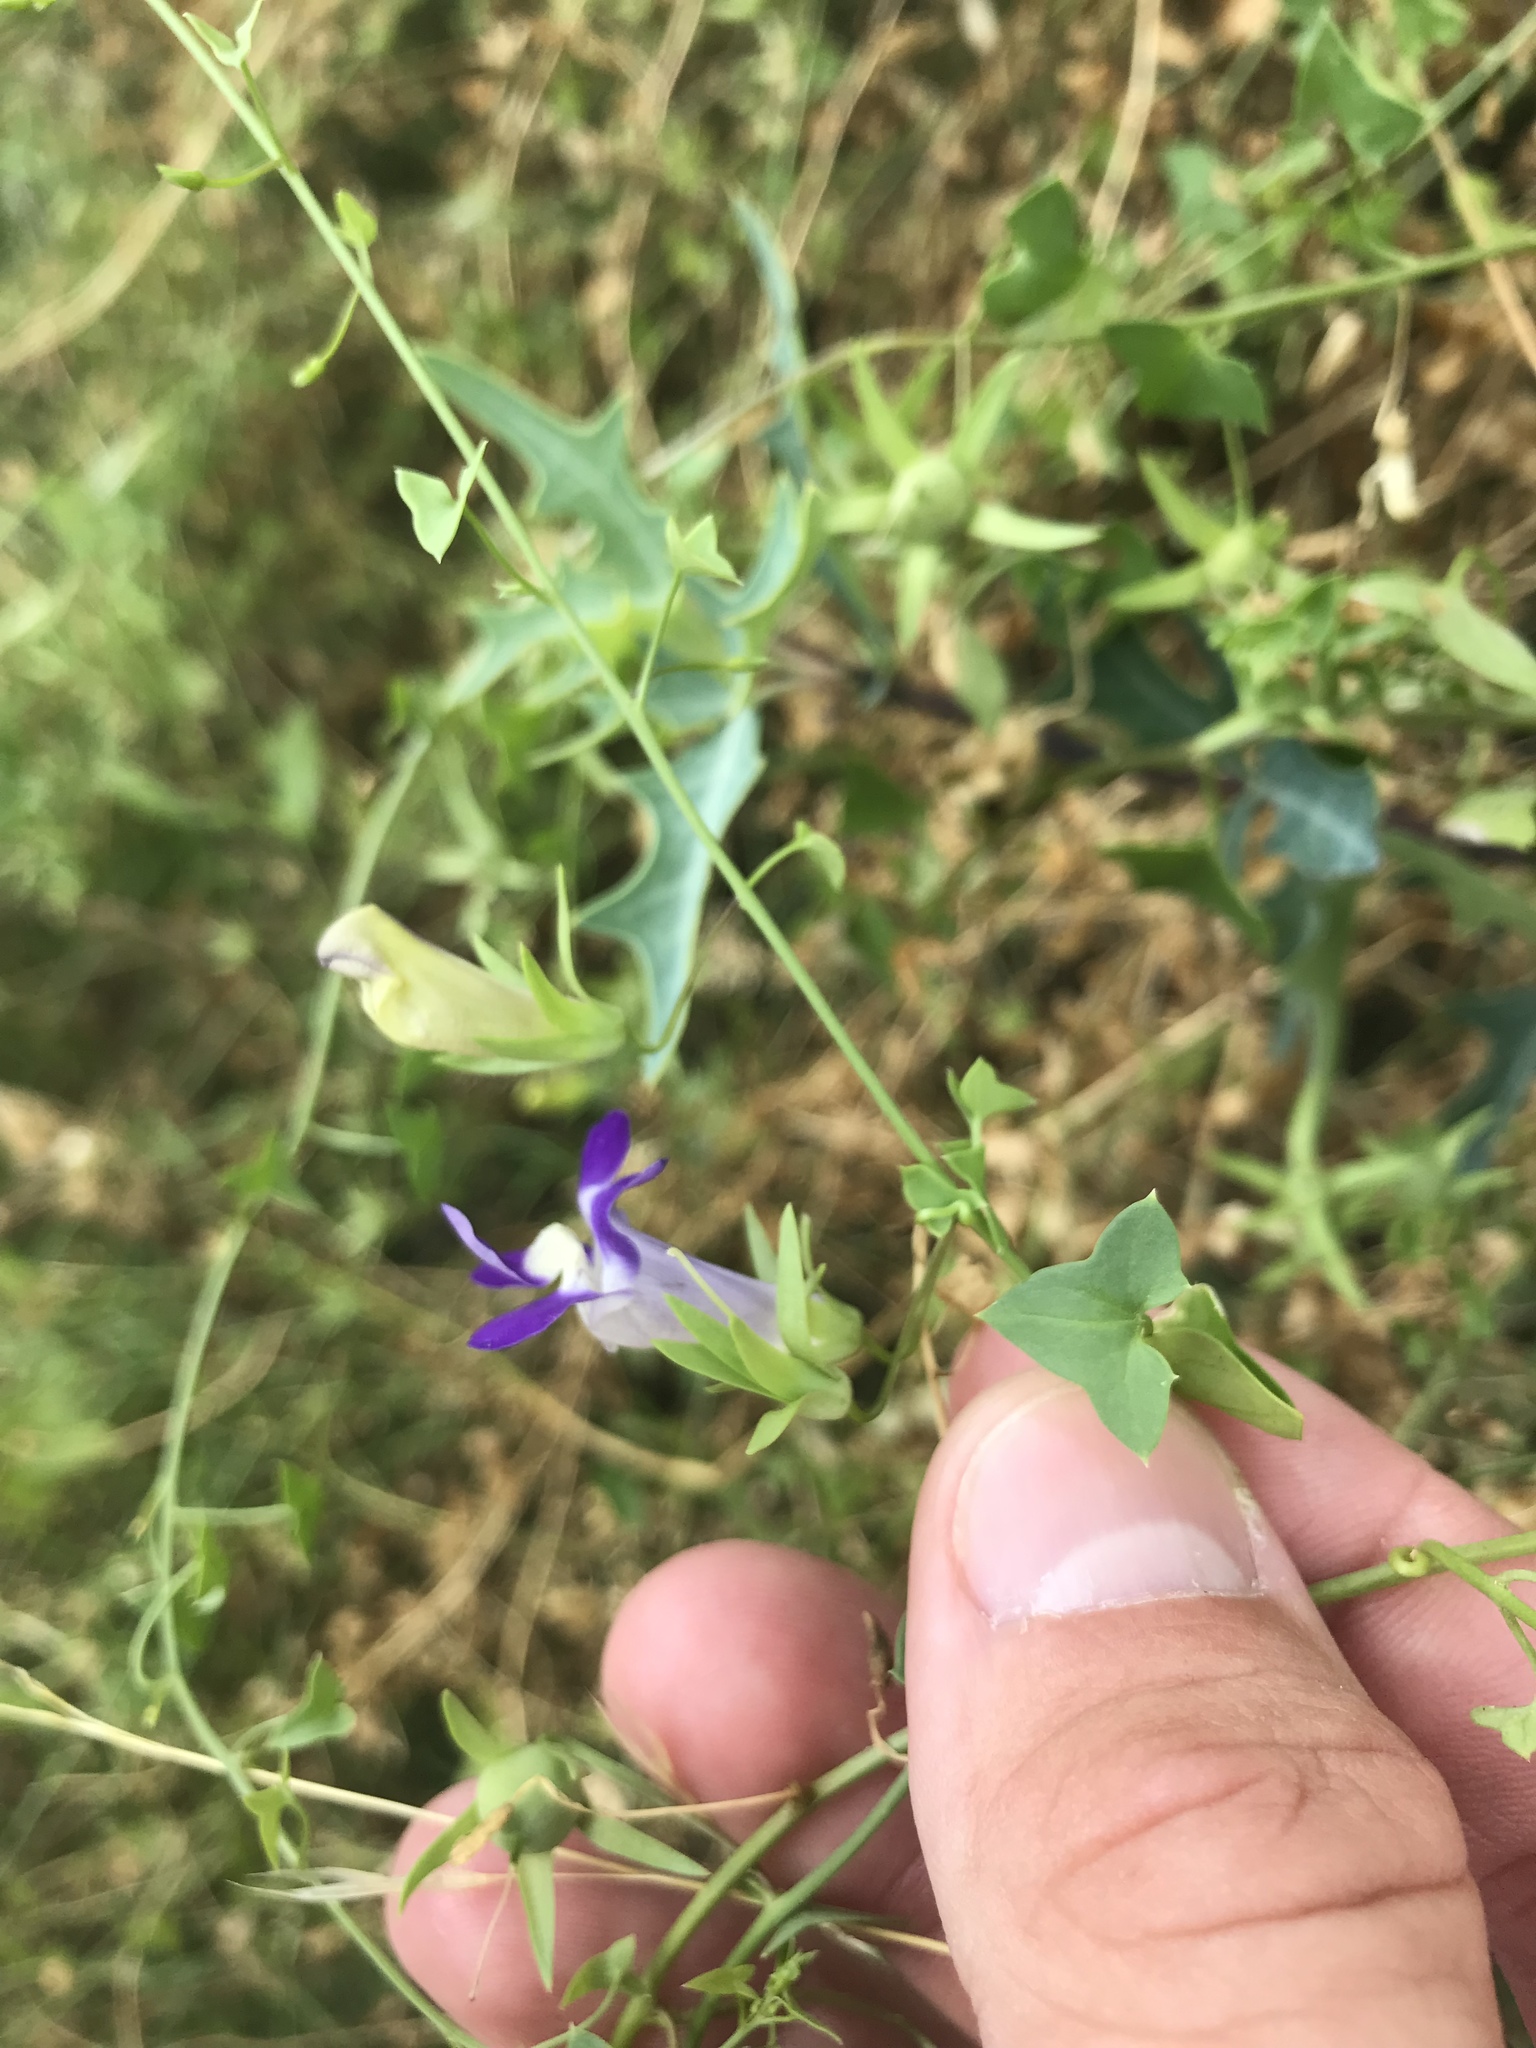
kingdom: Plantae
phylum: Tracheophyta
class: Magnoliopsida
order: Lamiales
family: Plantaginaceae
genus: Maurandella
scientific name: Maurandella antirrhiniflora
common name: Violet twining-snapdragon
